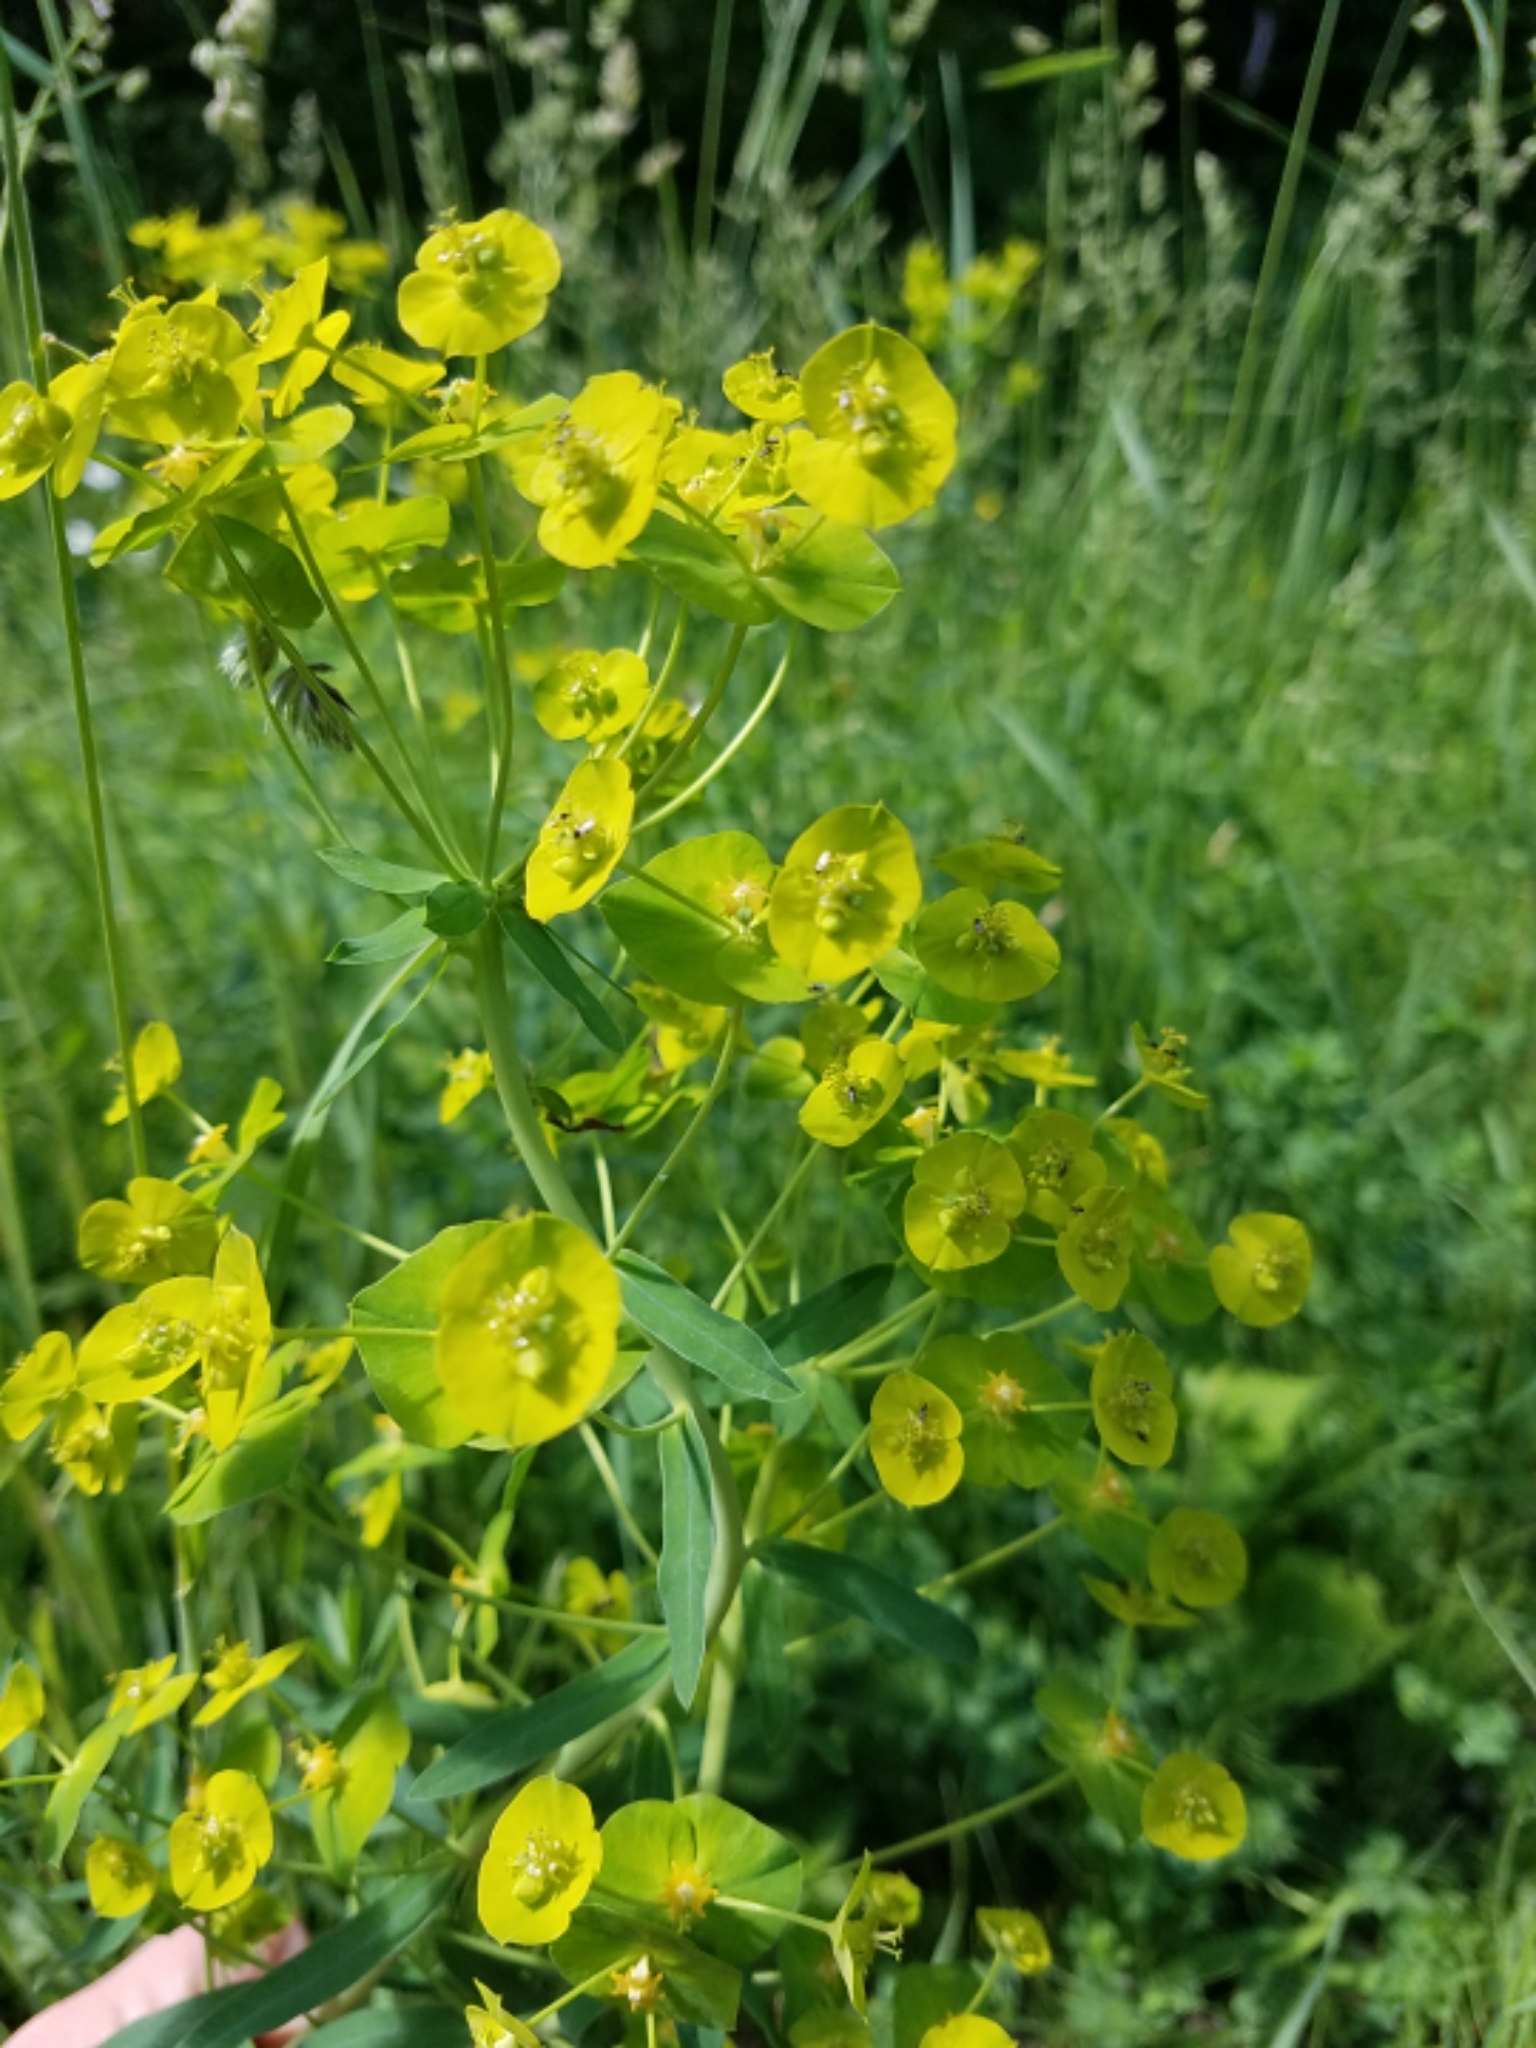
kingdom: Plantae
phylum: Tracheophyta
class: Magnoliopsida
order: Malpighiales
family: Euphorbiaceae
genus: Euphorbia
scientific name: Euphorbia virgata
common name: Leafy spurge
